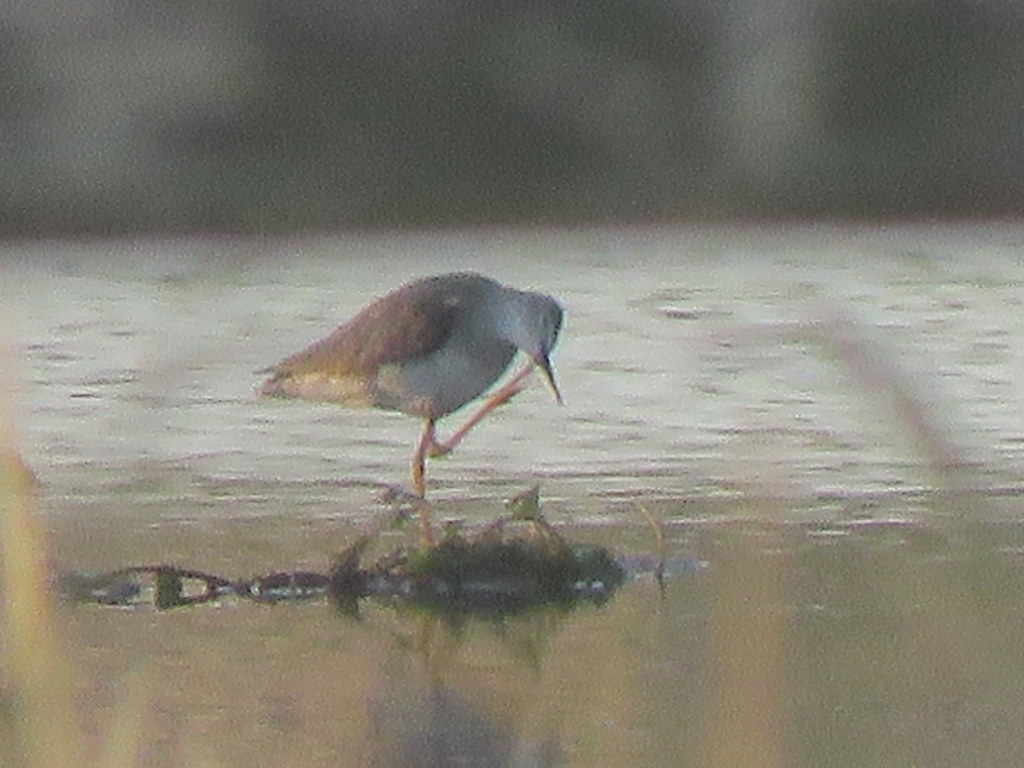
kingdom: Animalia
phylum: Chordata
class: Aves
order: Charadriiformes
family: Scolopacidae
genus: Tringa
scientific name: Tringa flavipes
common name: Lesser yellowlegs
